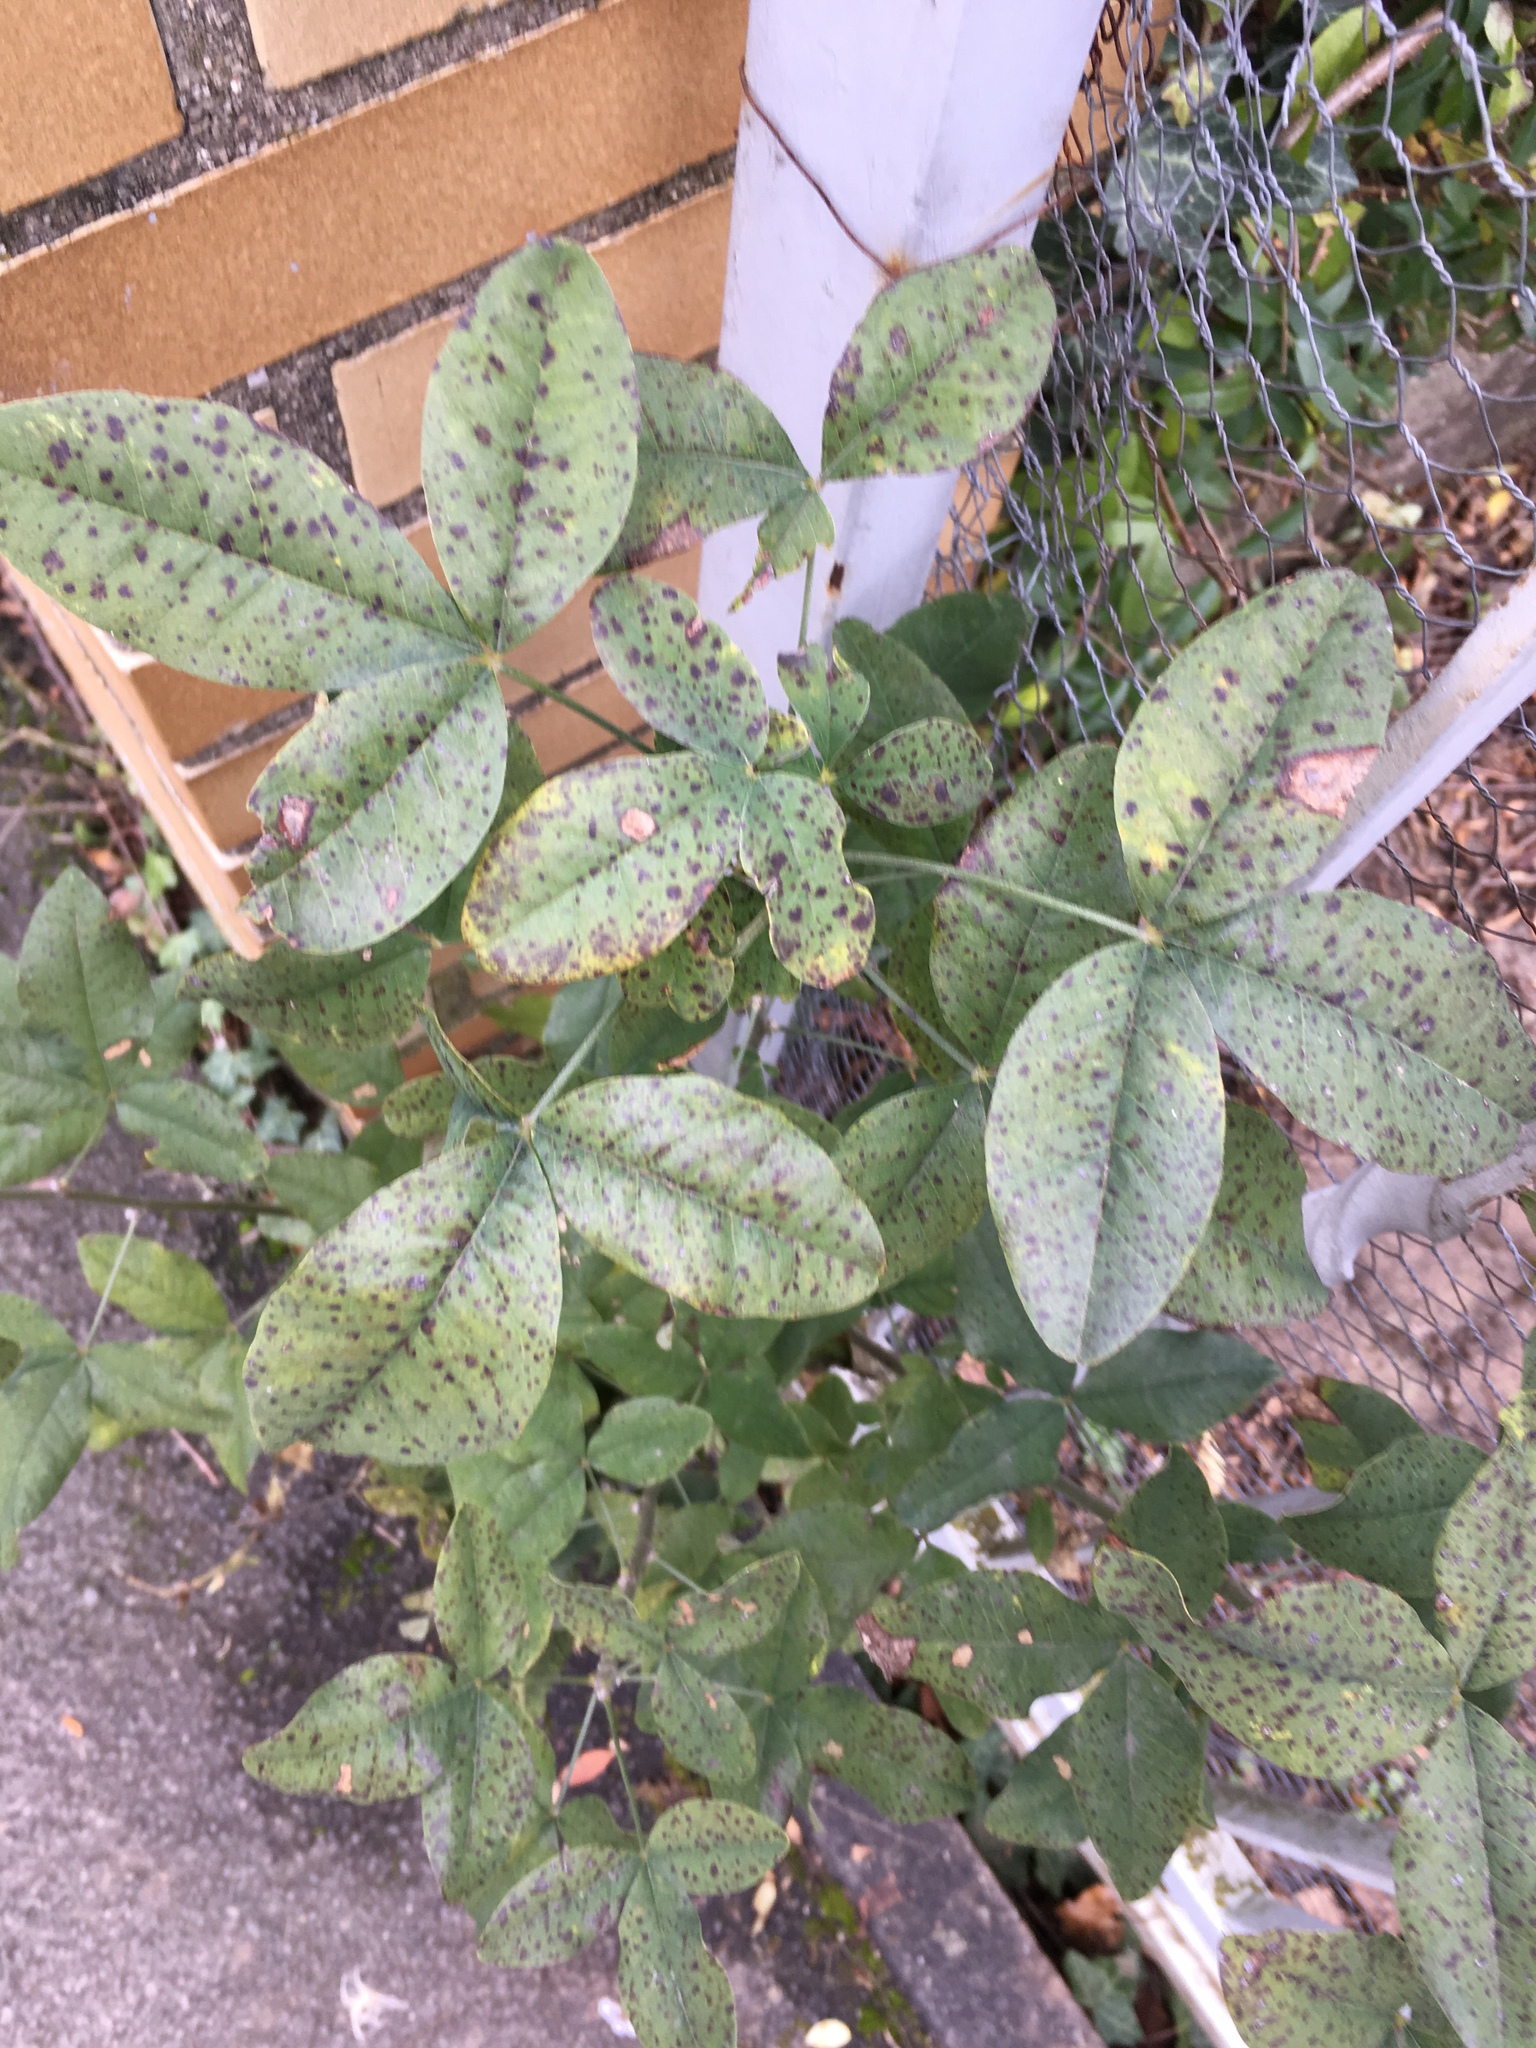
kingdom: Plantae
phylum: Tracheophyta
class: Magnoliopsida
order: Fabales
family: Fabaceae
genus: Laburnum
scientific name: Laburnum anagyroides
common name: Laburnum
